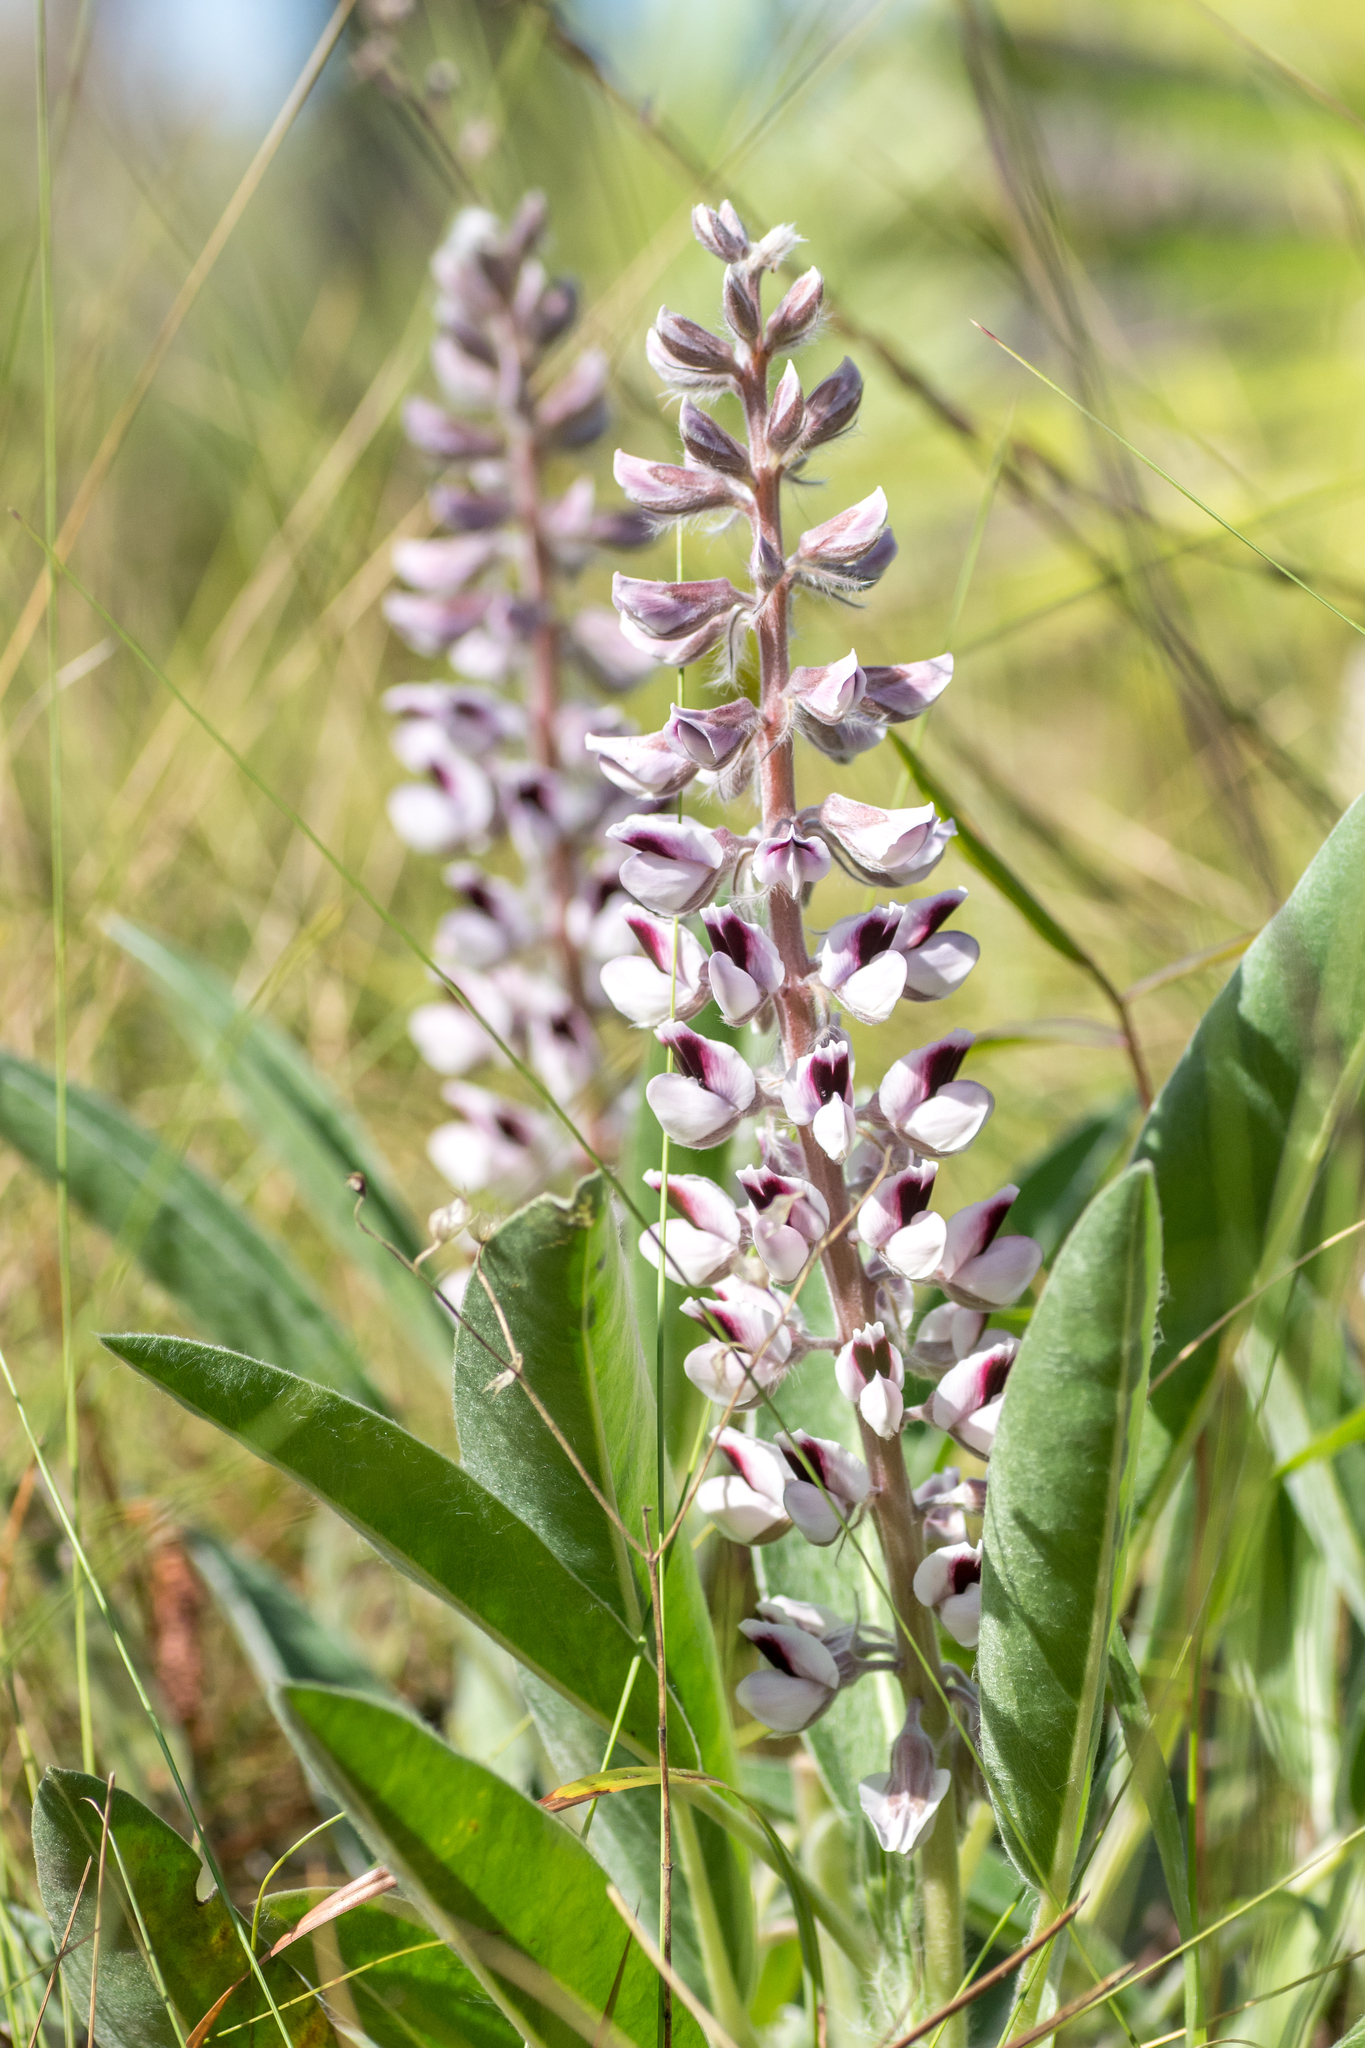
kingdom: Plantae
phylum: Tracheophyta
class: Magnoliopsida
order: Fabales
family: Fabaceae
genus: Lupinus
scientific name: Lupinus villosus
